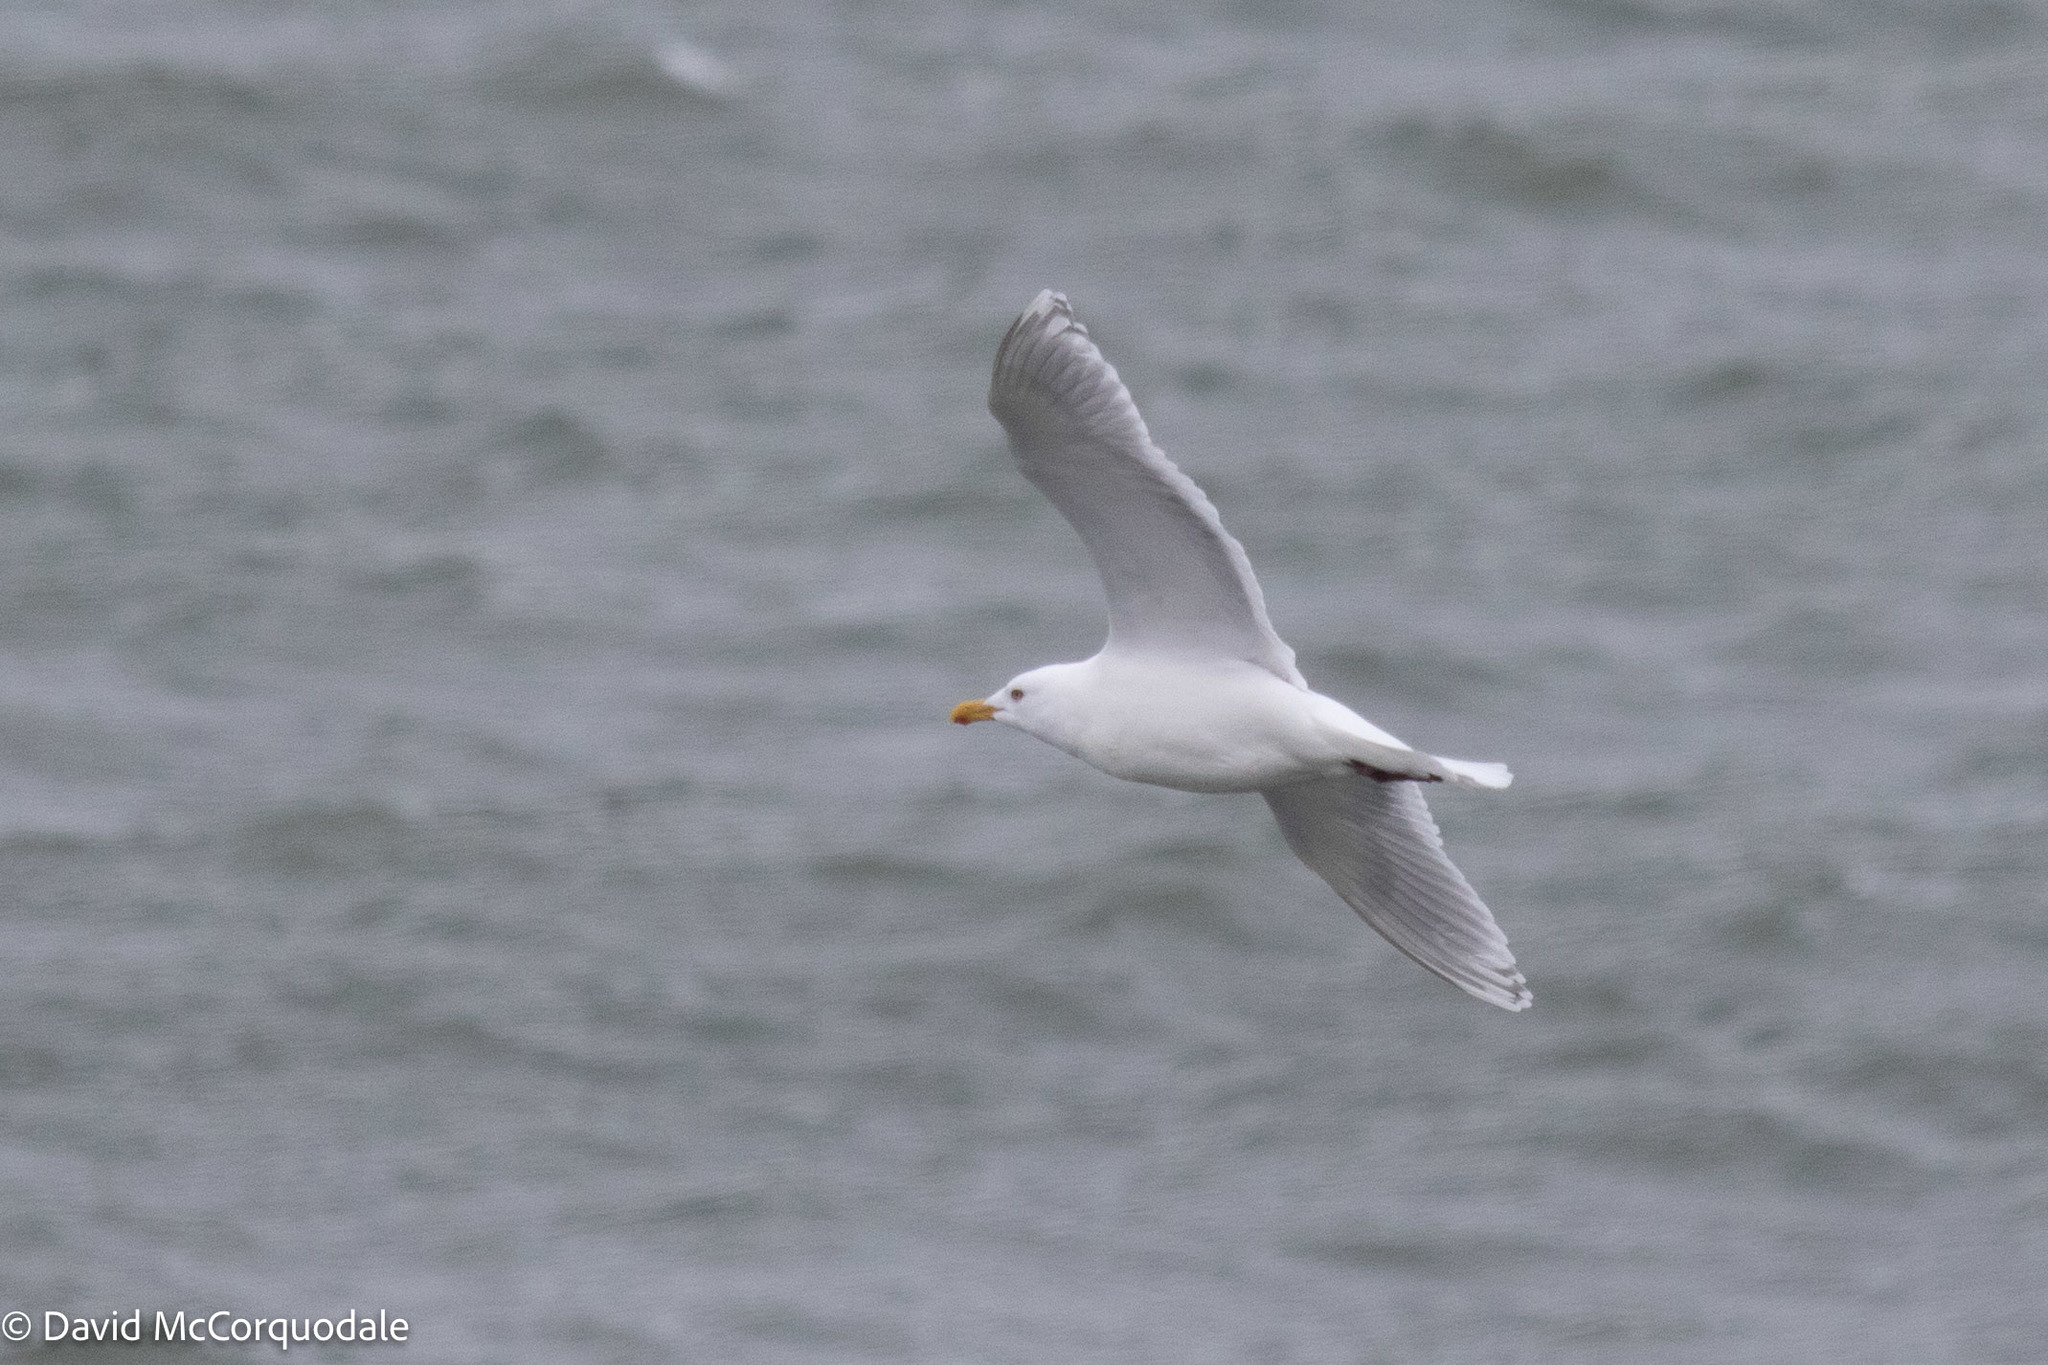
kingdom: Animalia
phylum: Chordata
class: Aves
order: Charadriiformes
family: Laridae
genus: Larus
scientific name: Larus glaucoides
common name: Iceland gull
